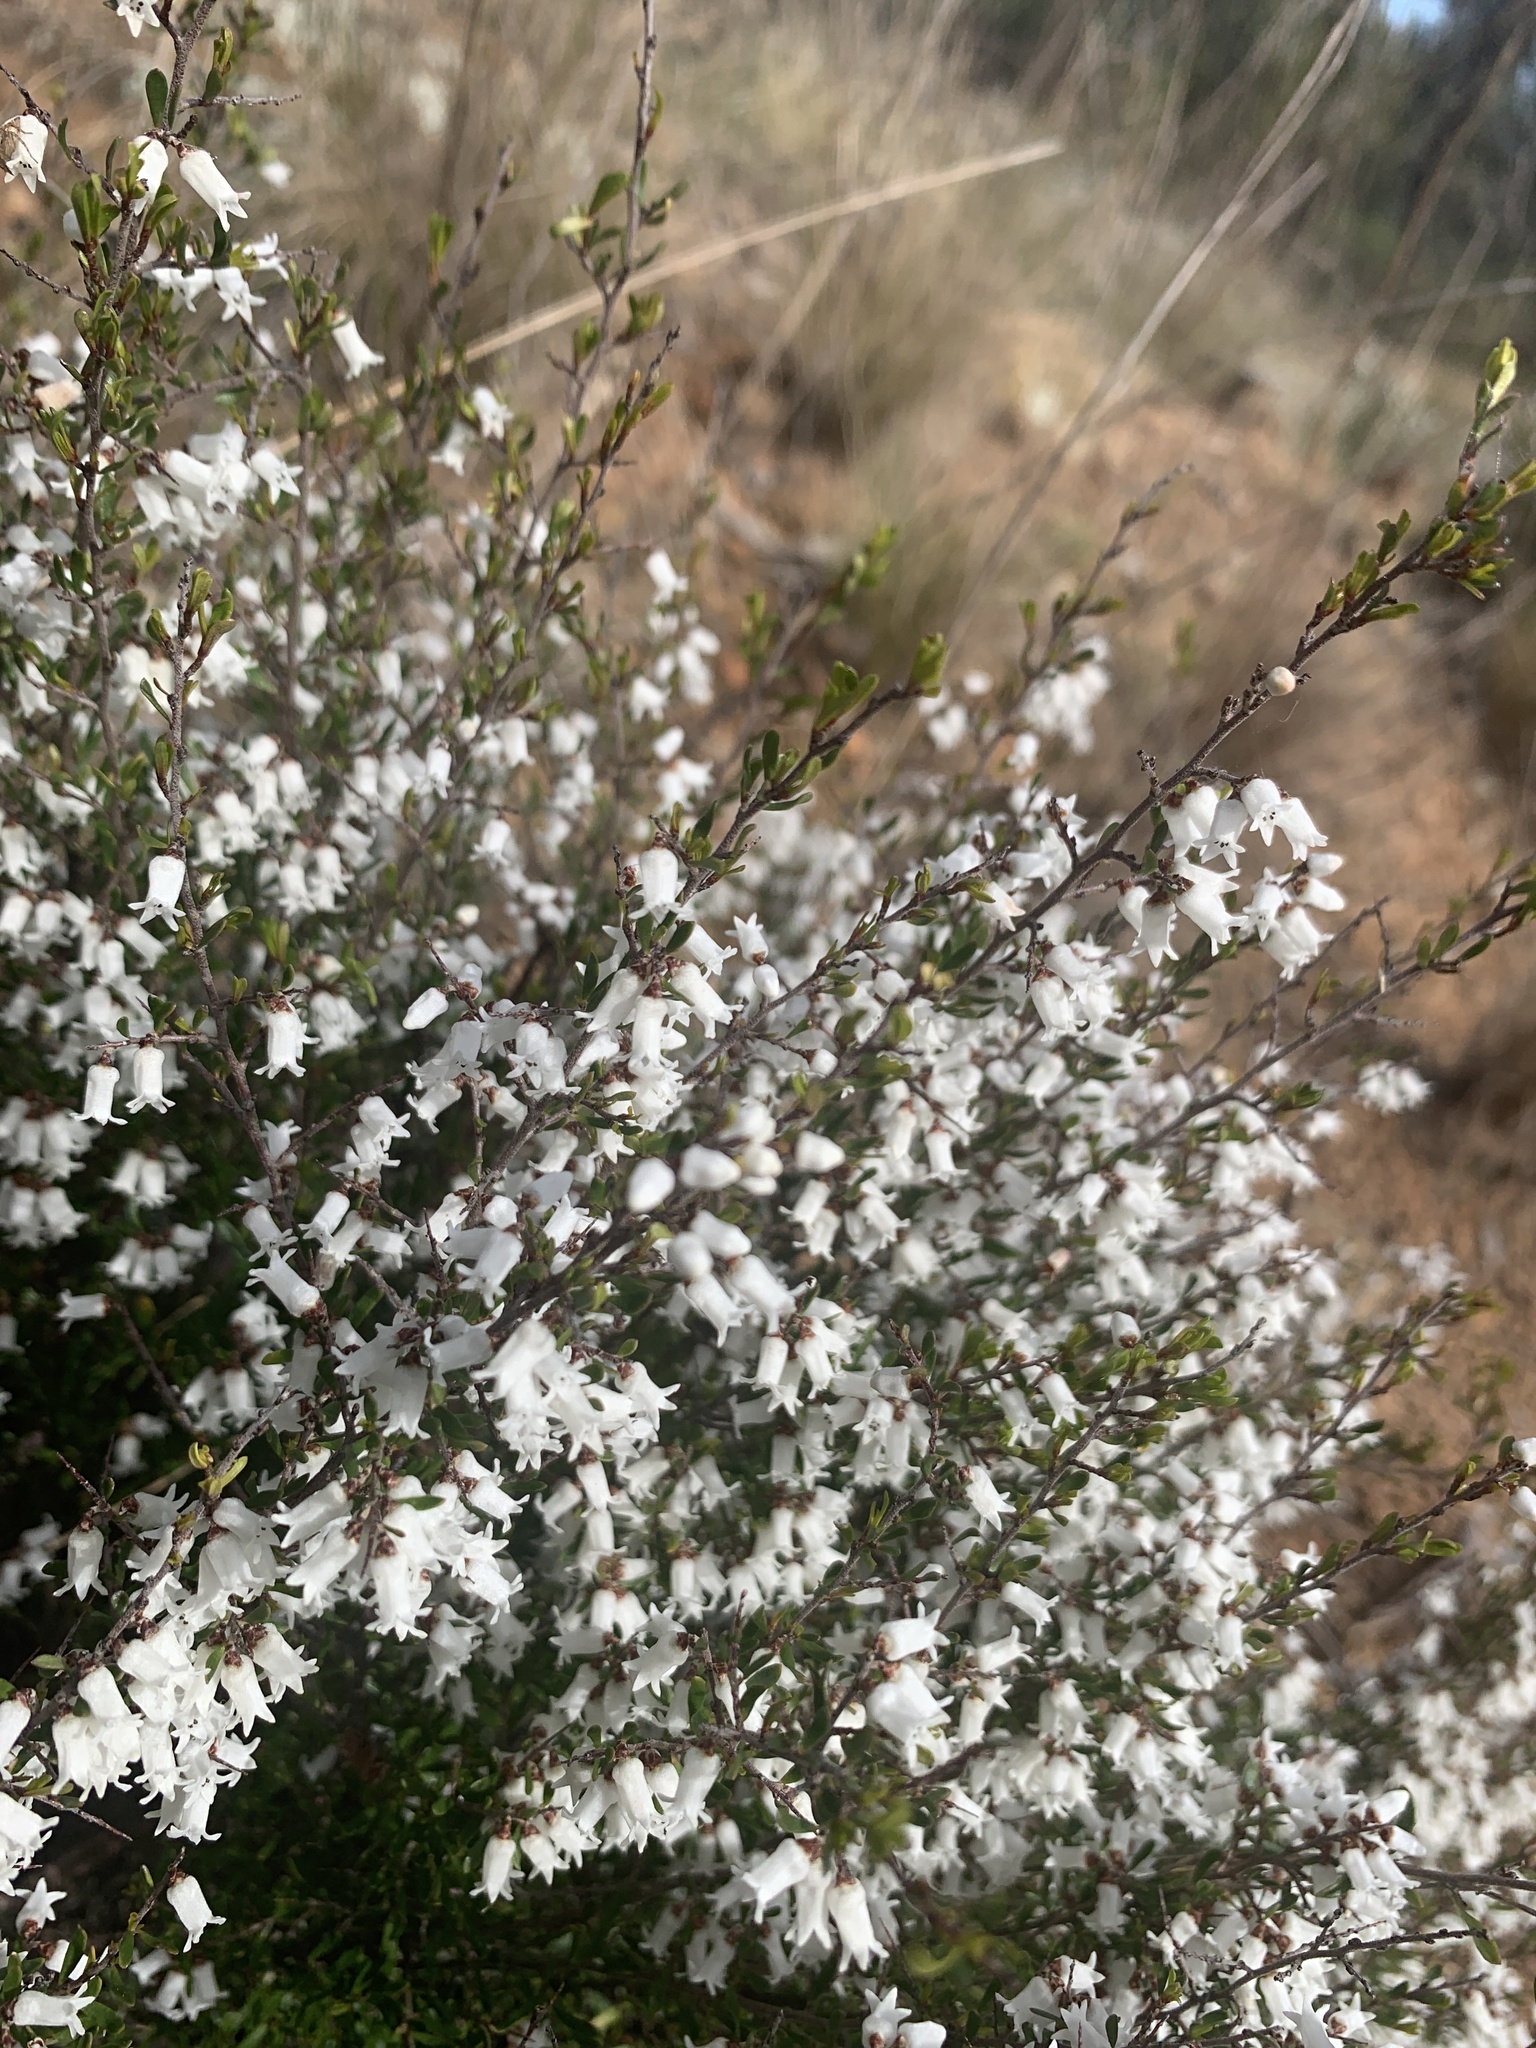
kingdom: Plantae
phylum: Tracheophyta
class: Magnoliopsida
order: Rosales
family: Rhamnaceae
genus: Cryptandra
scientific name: Cryptandra amara
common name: Bitter cryptandra
